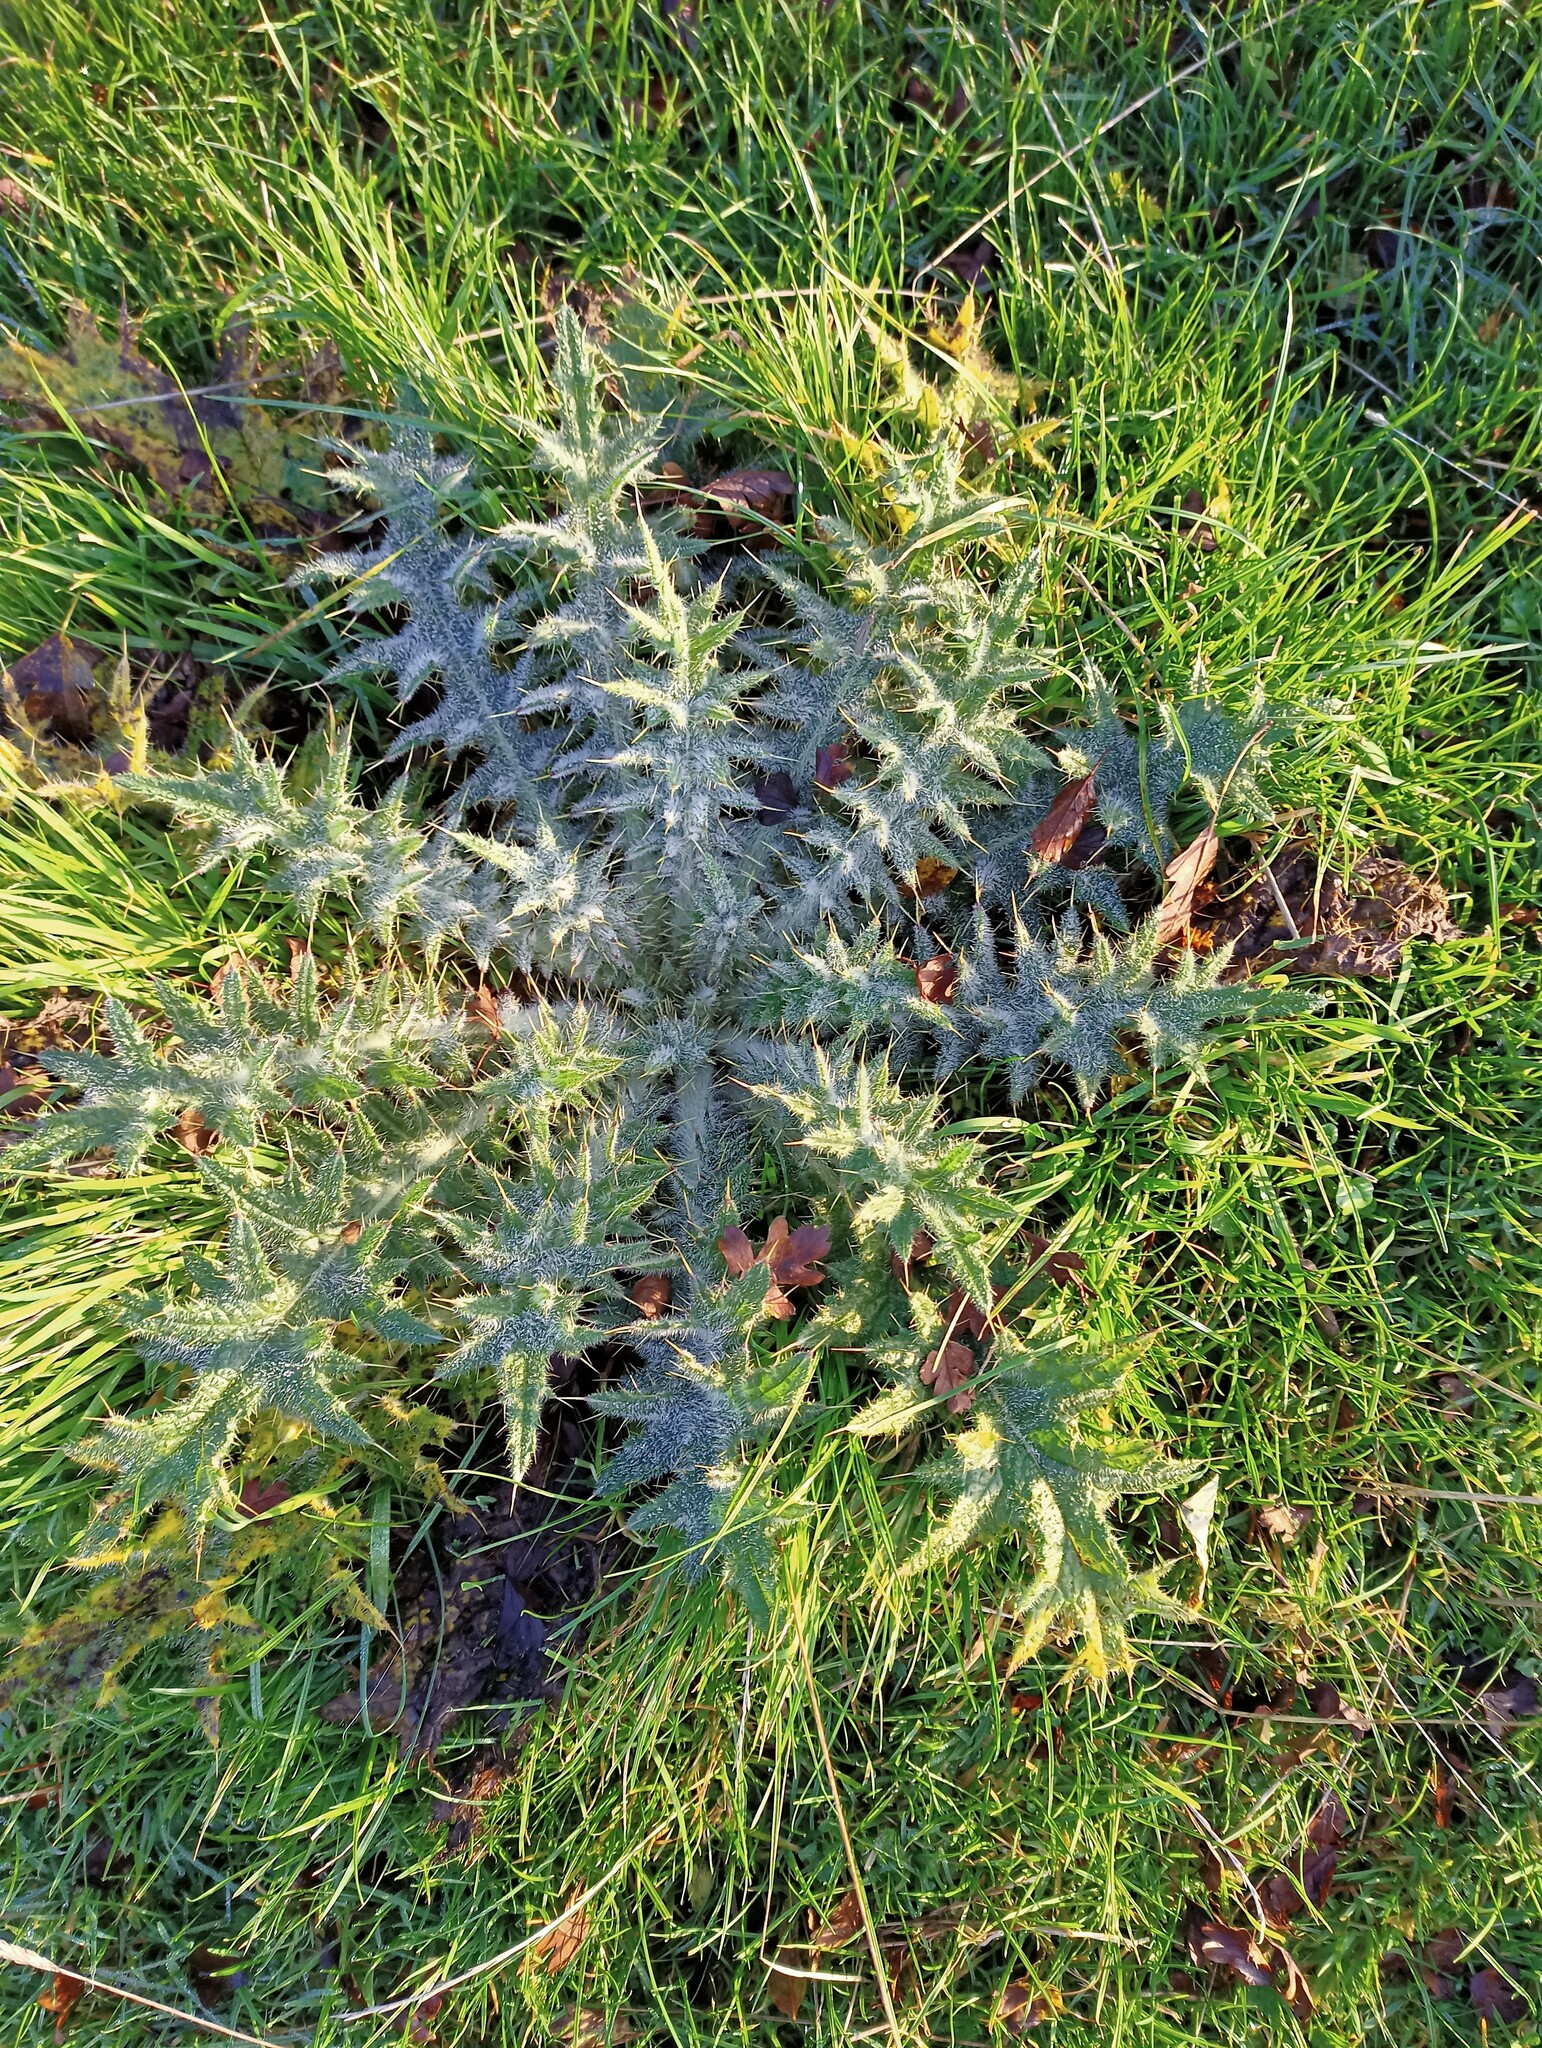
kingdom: Plantae
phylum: Tracheophyta
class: Magnoliopsida
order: Asterales
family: Asteraceae
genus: Cirsium
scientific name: Cirsium vulgare
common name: Bull thistle
